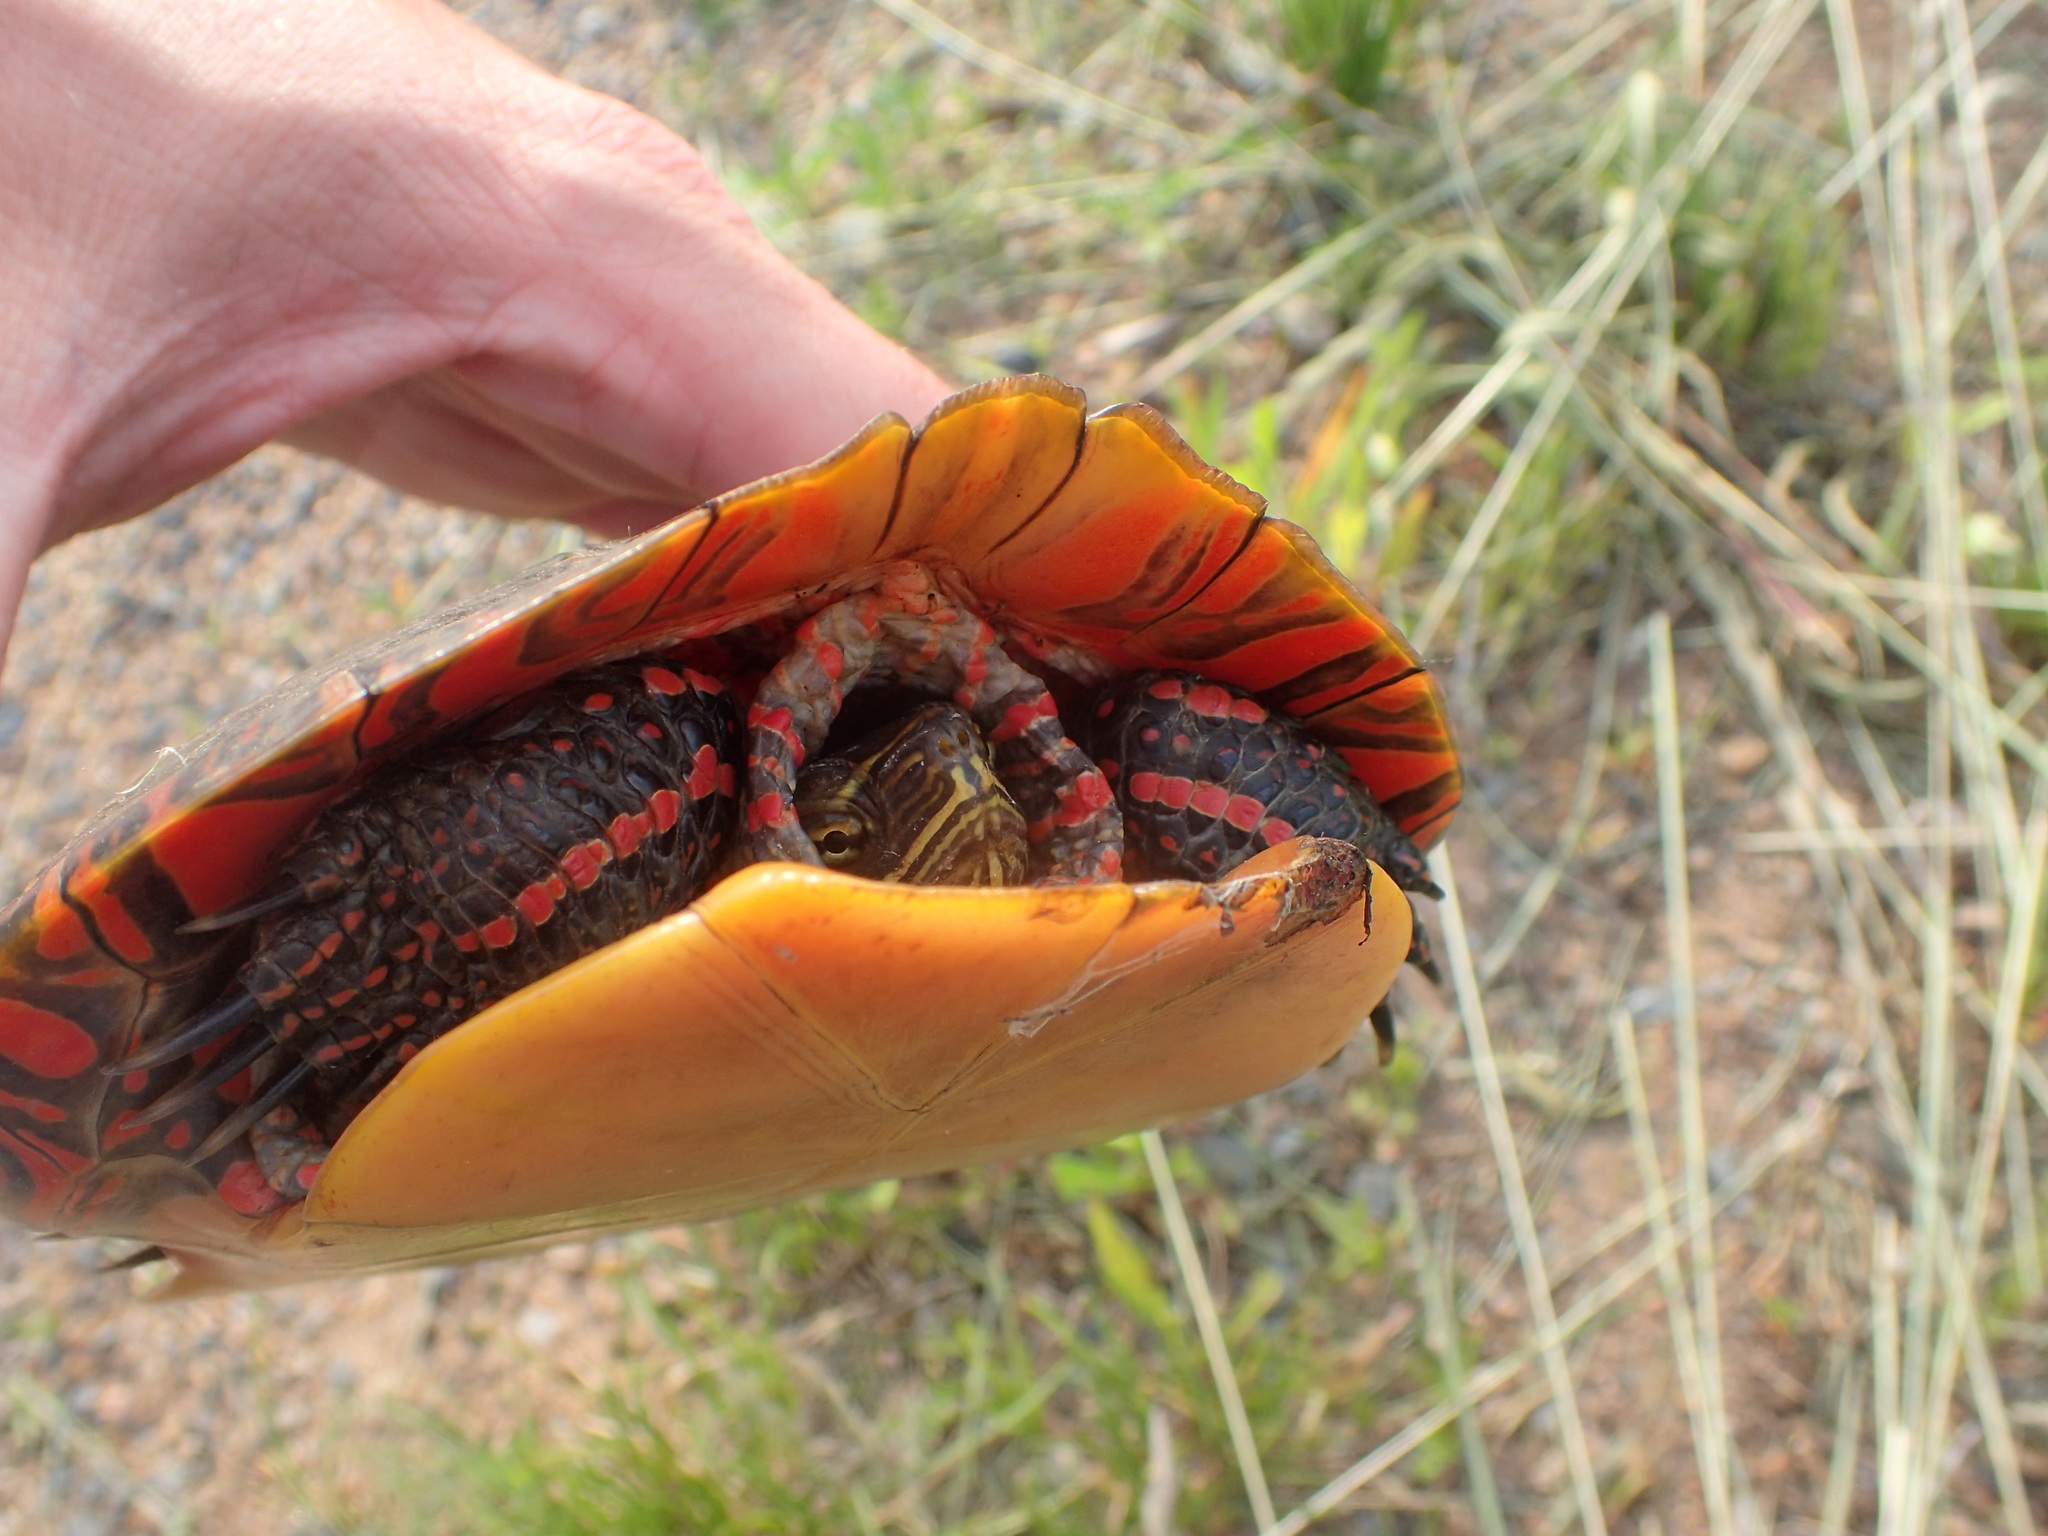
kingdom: Animalia
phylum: Chordata
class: Testudines
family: Emydidae
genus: Chrysemys
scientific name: Chrysemys picta
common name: Painted turtle
